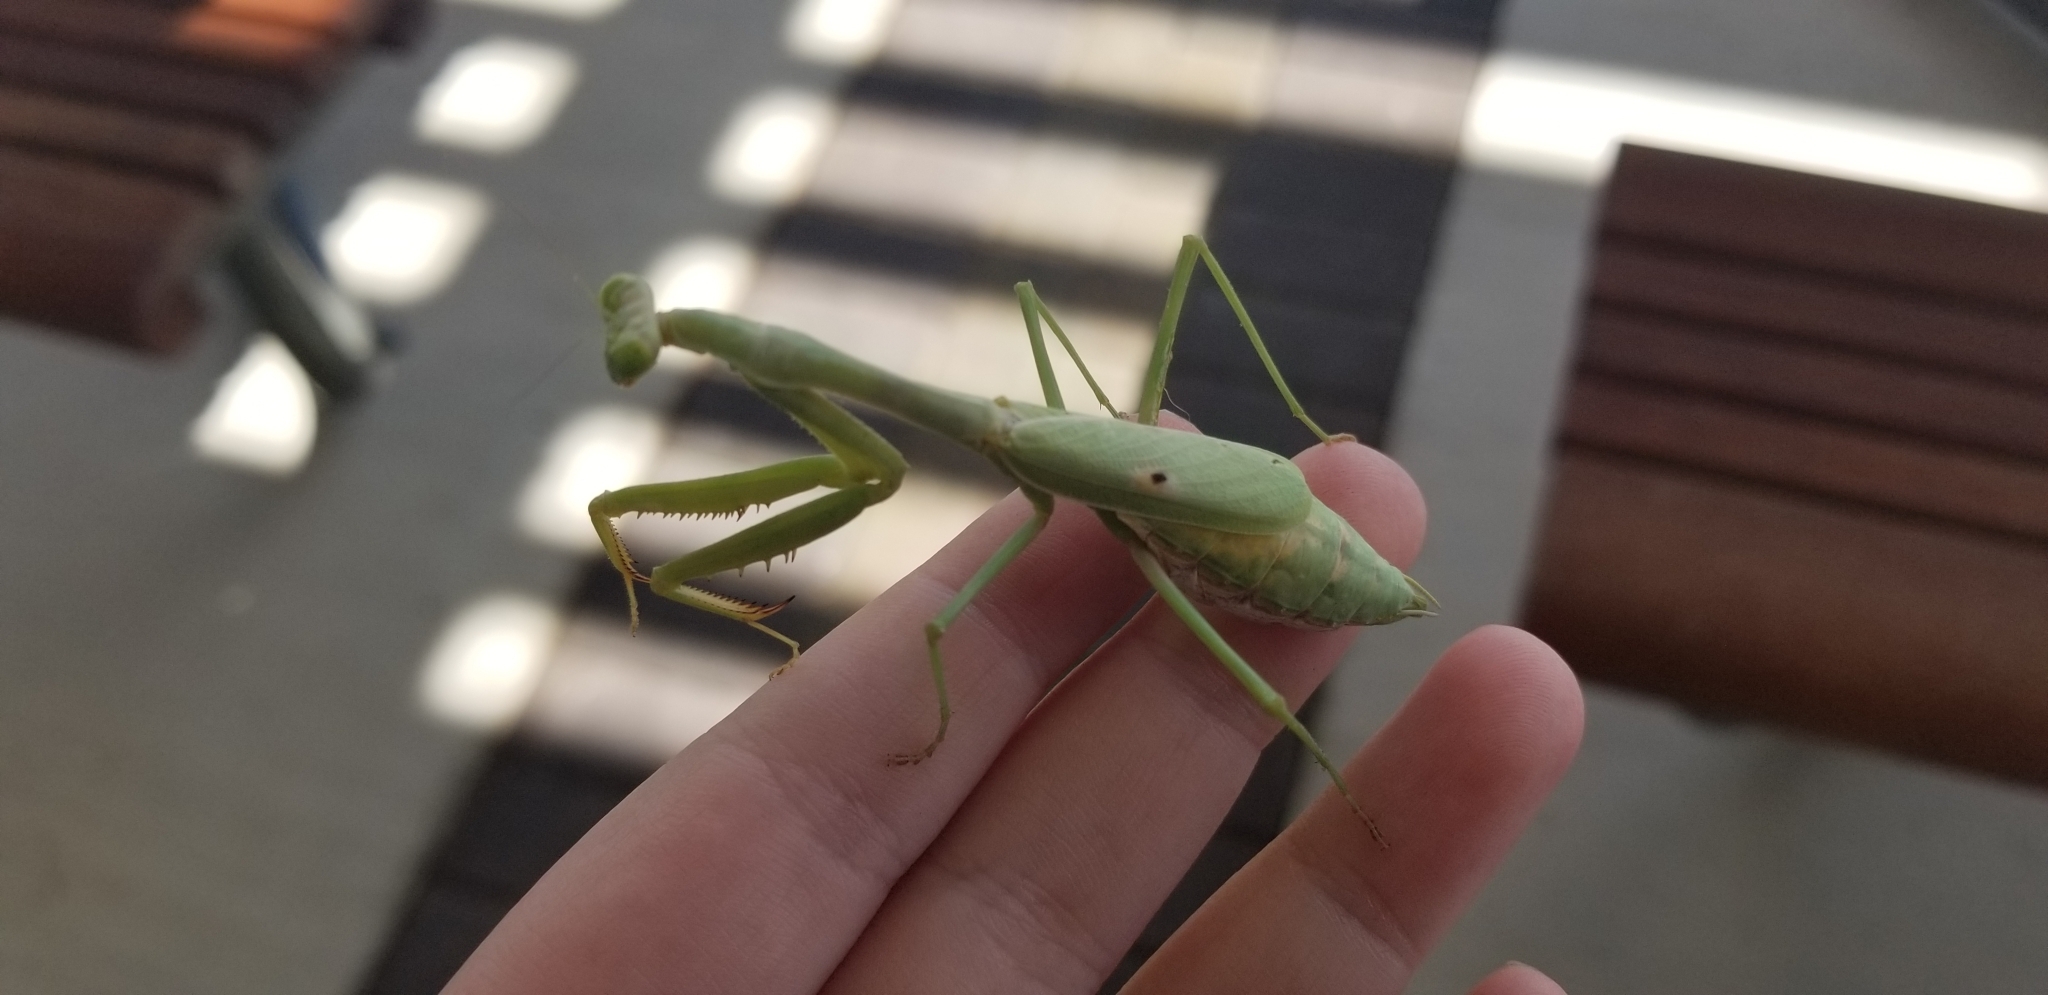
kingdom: Animalia
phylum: Arthropoda
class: Insecta
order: Mantodea
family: Mantidae
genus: Stagmomantis
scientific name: Stagmomantis carolina
